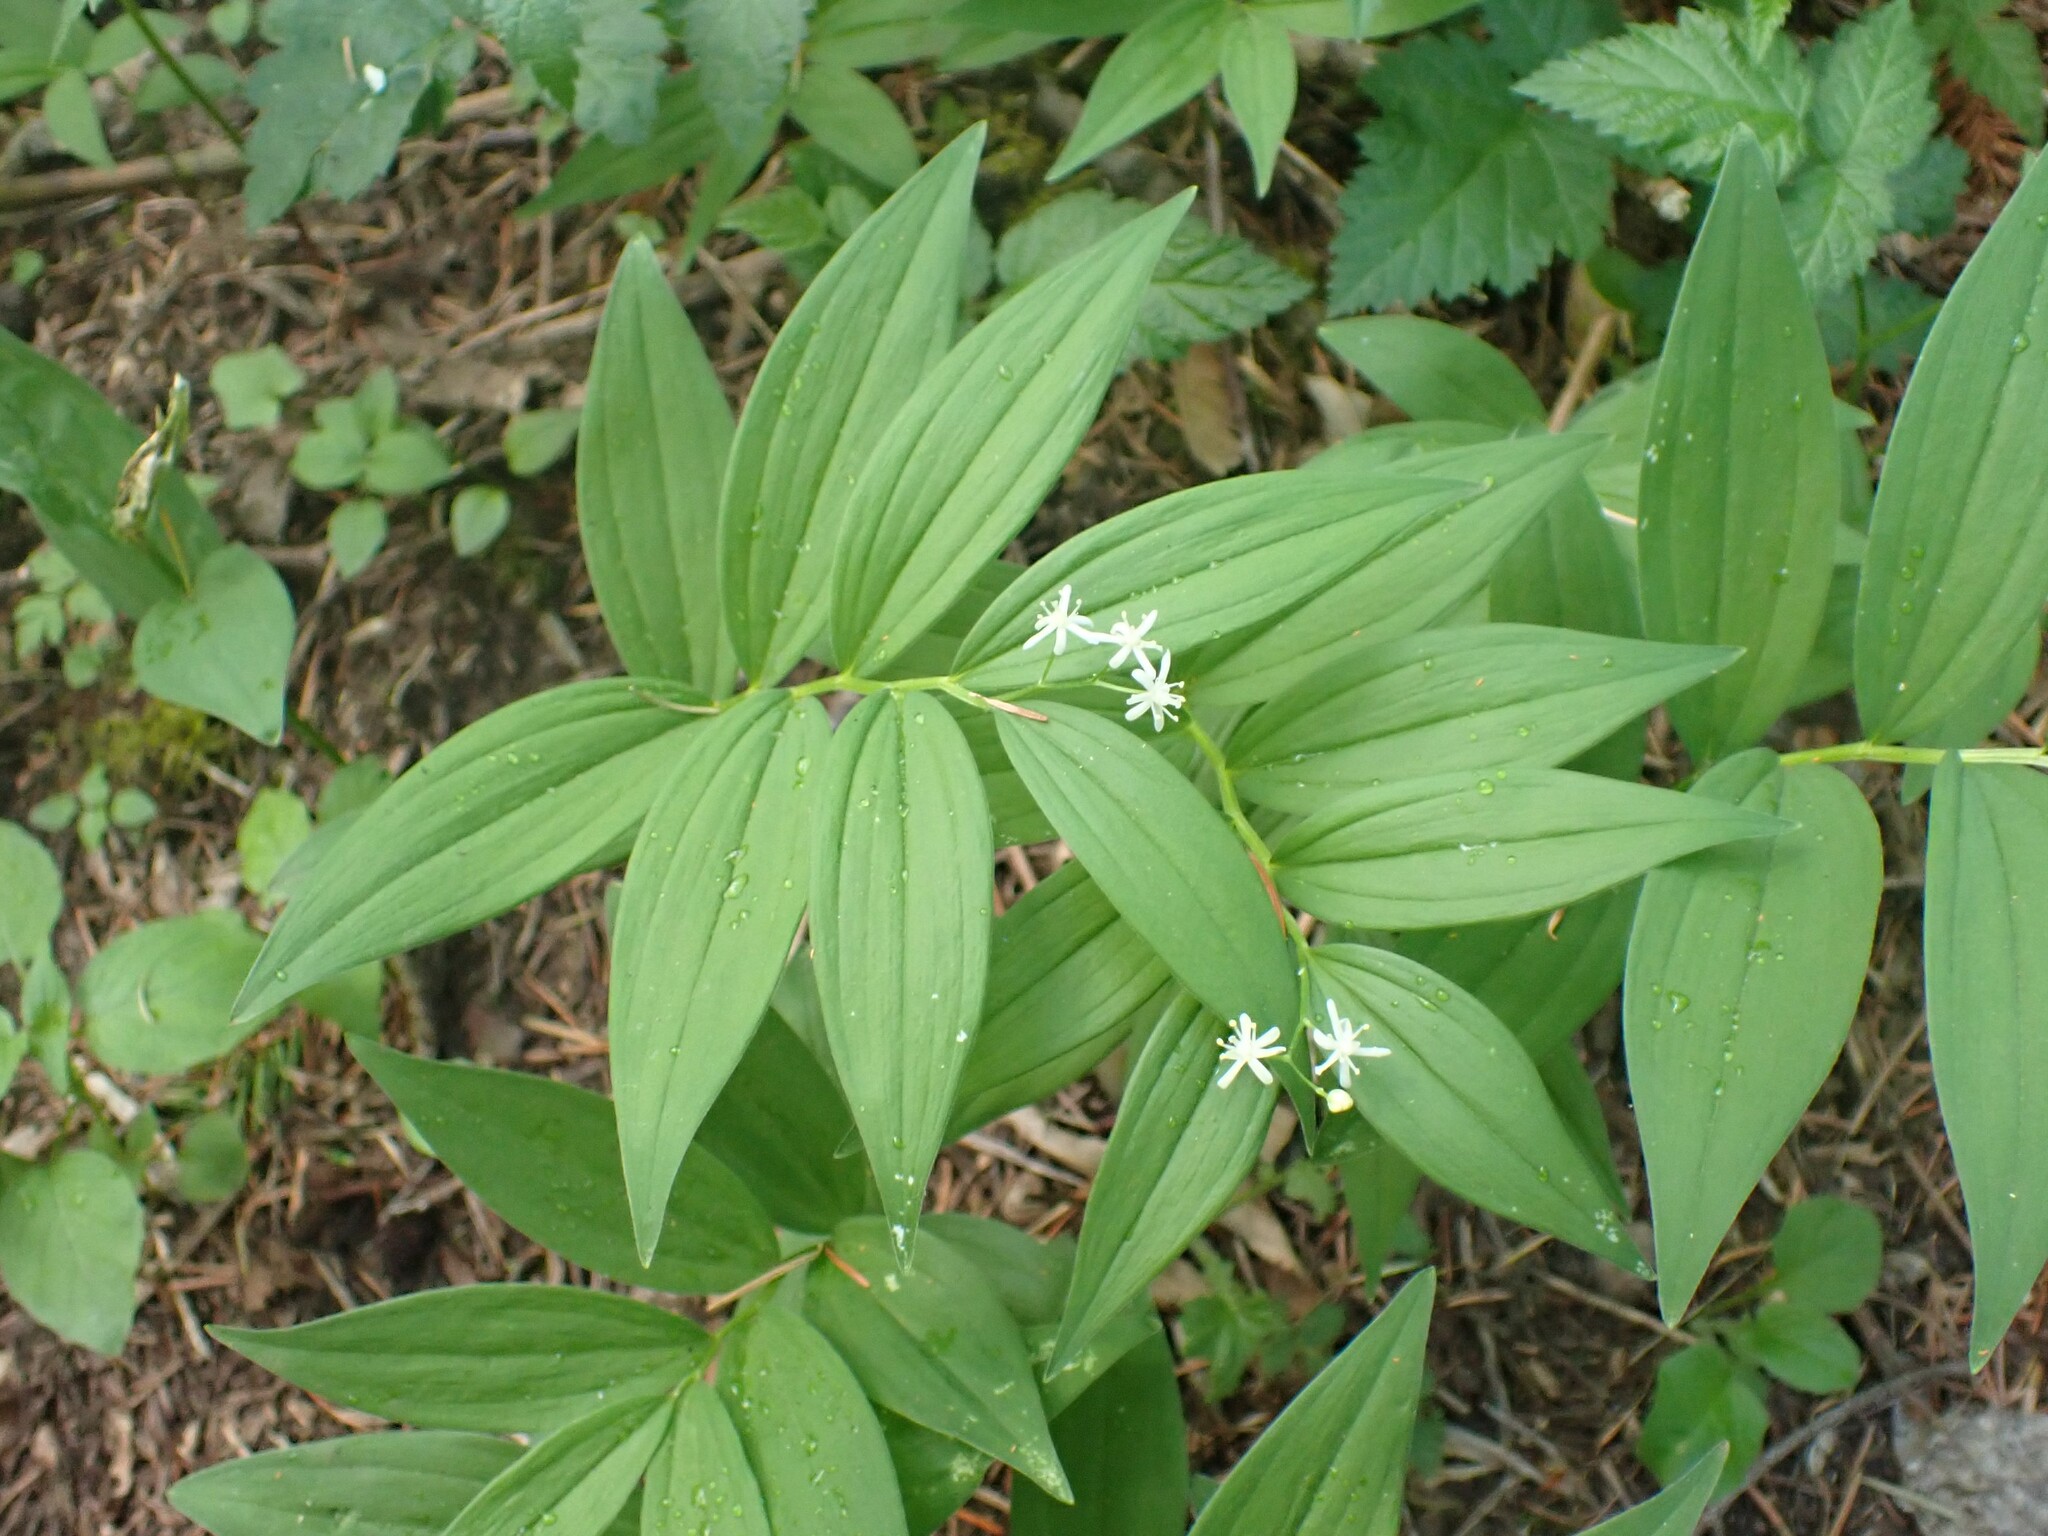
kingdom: Plantae
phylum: Tracheophyta
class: Liliopsida
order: Asparagales
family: Asparagaceae
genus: Maianthemum
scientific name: Maianthemum stellatum
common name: Little false solomon's seal
